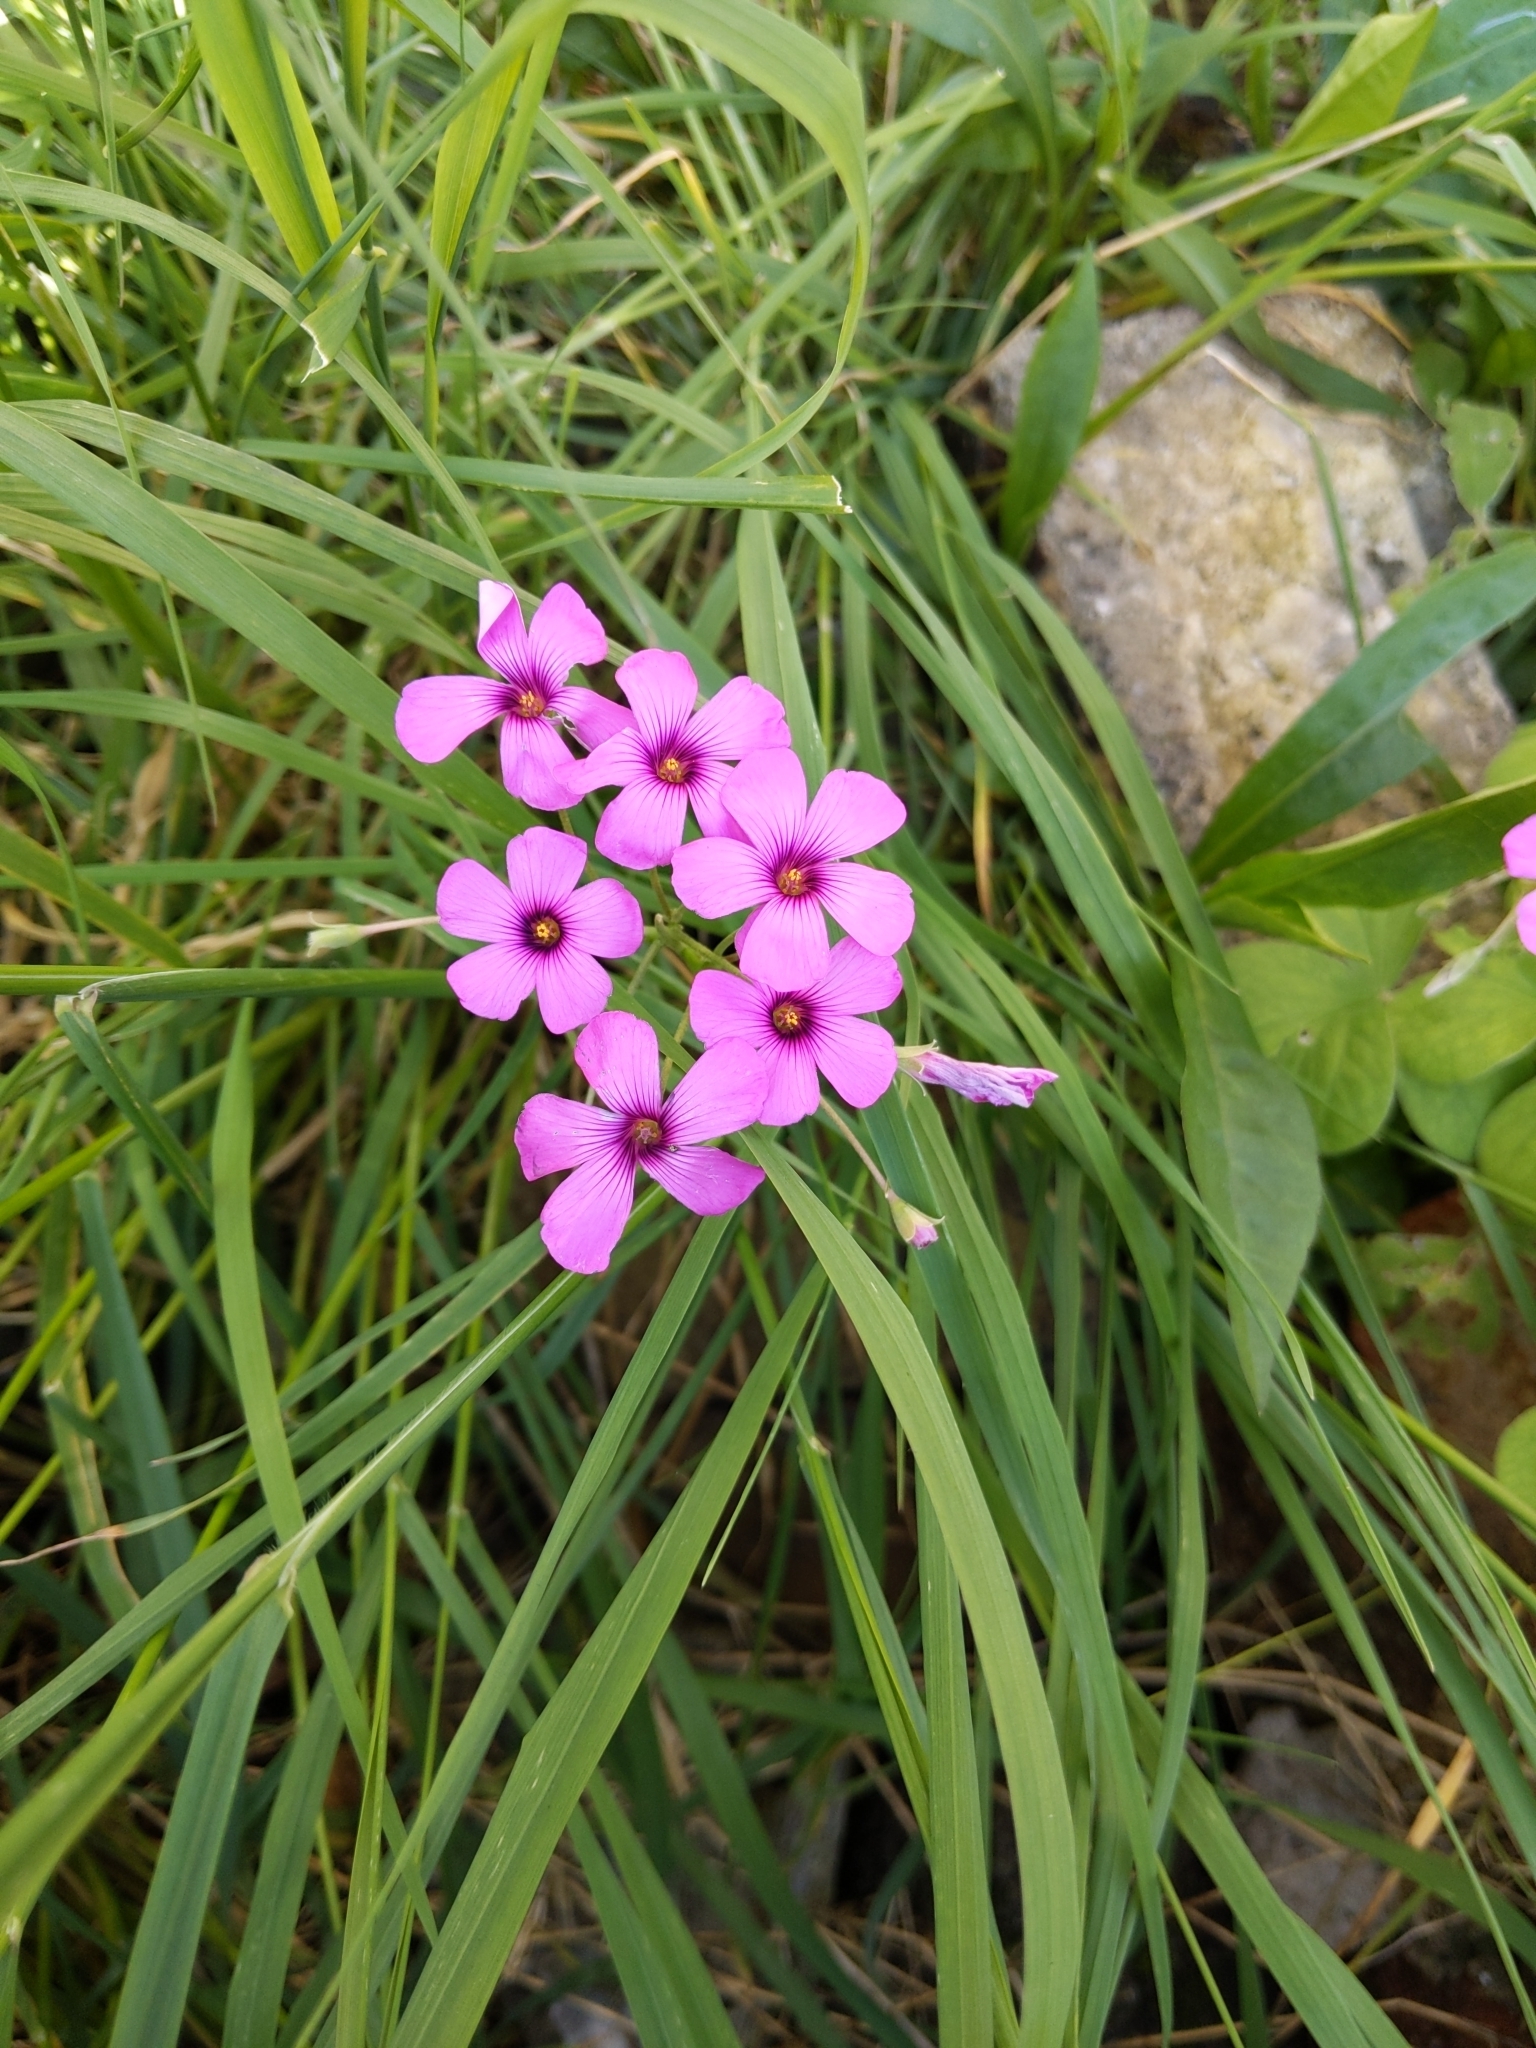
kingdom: Plantae
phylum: Tracheophyta
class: Magnoliopsida
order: Oxalidales
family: Oxalidaceae
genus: Oxalis
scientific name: Oxalis articulata
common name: Pink-sorrel
